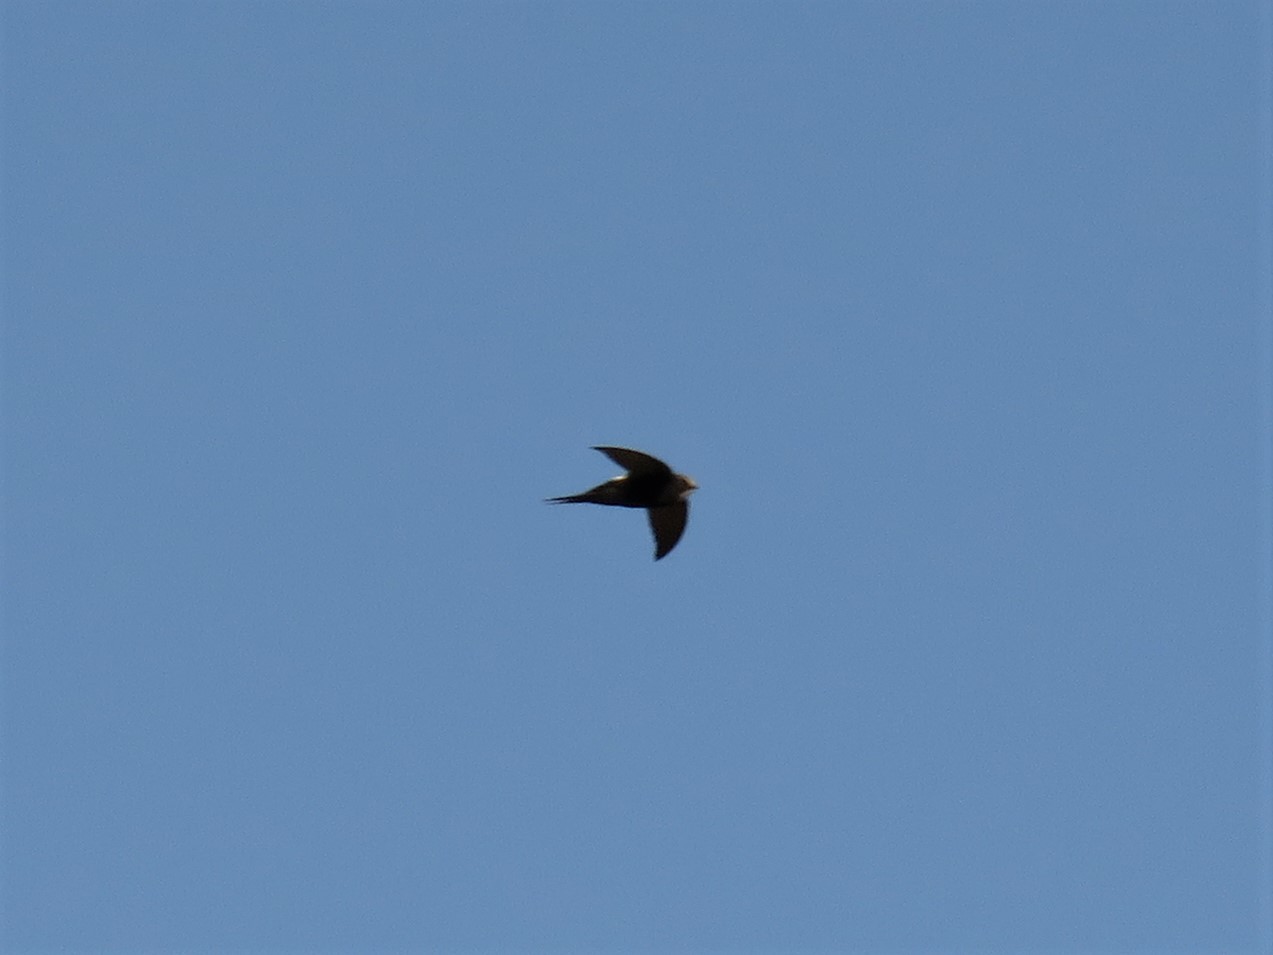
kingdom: Animalia
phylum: Chordata
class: Aves
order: Apodiformes
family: Apodidae
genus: Apus
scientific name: Apus caffer
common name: White-rumped swift
